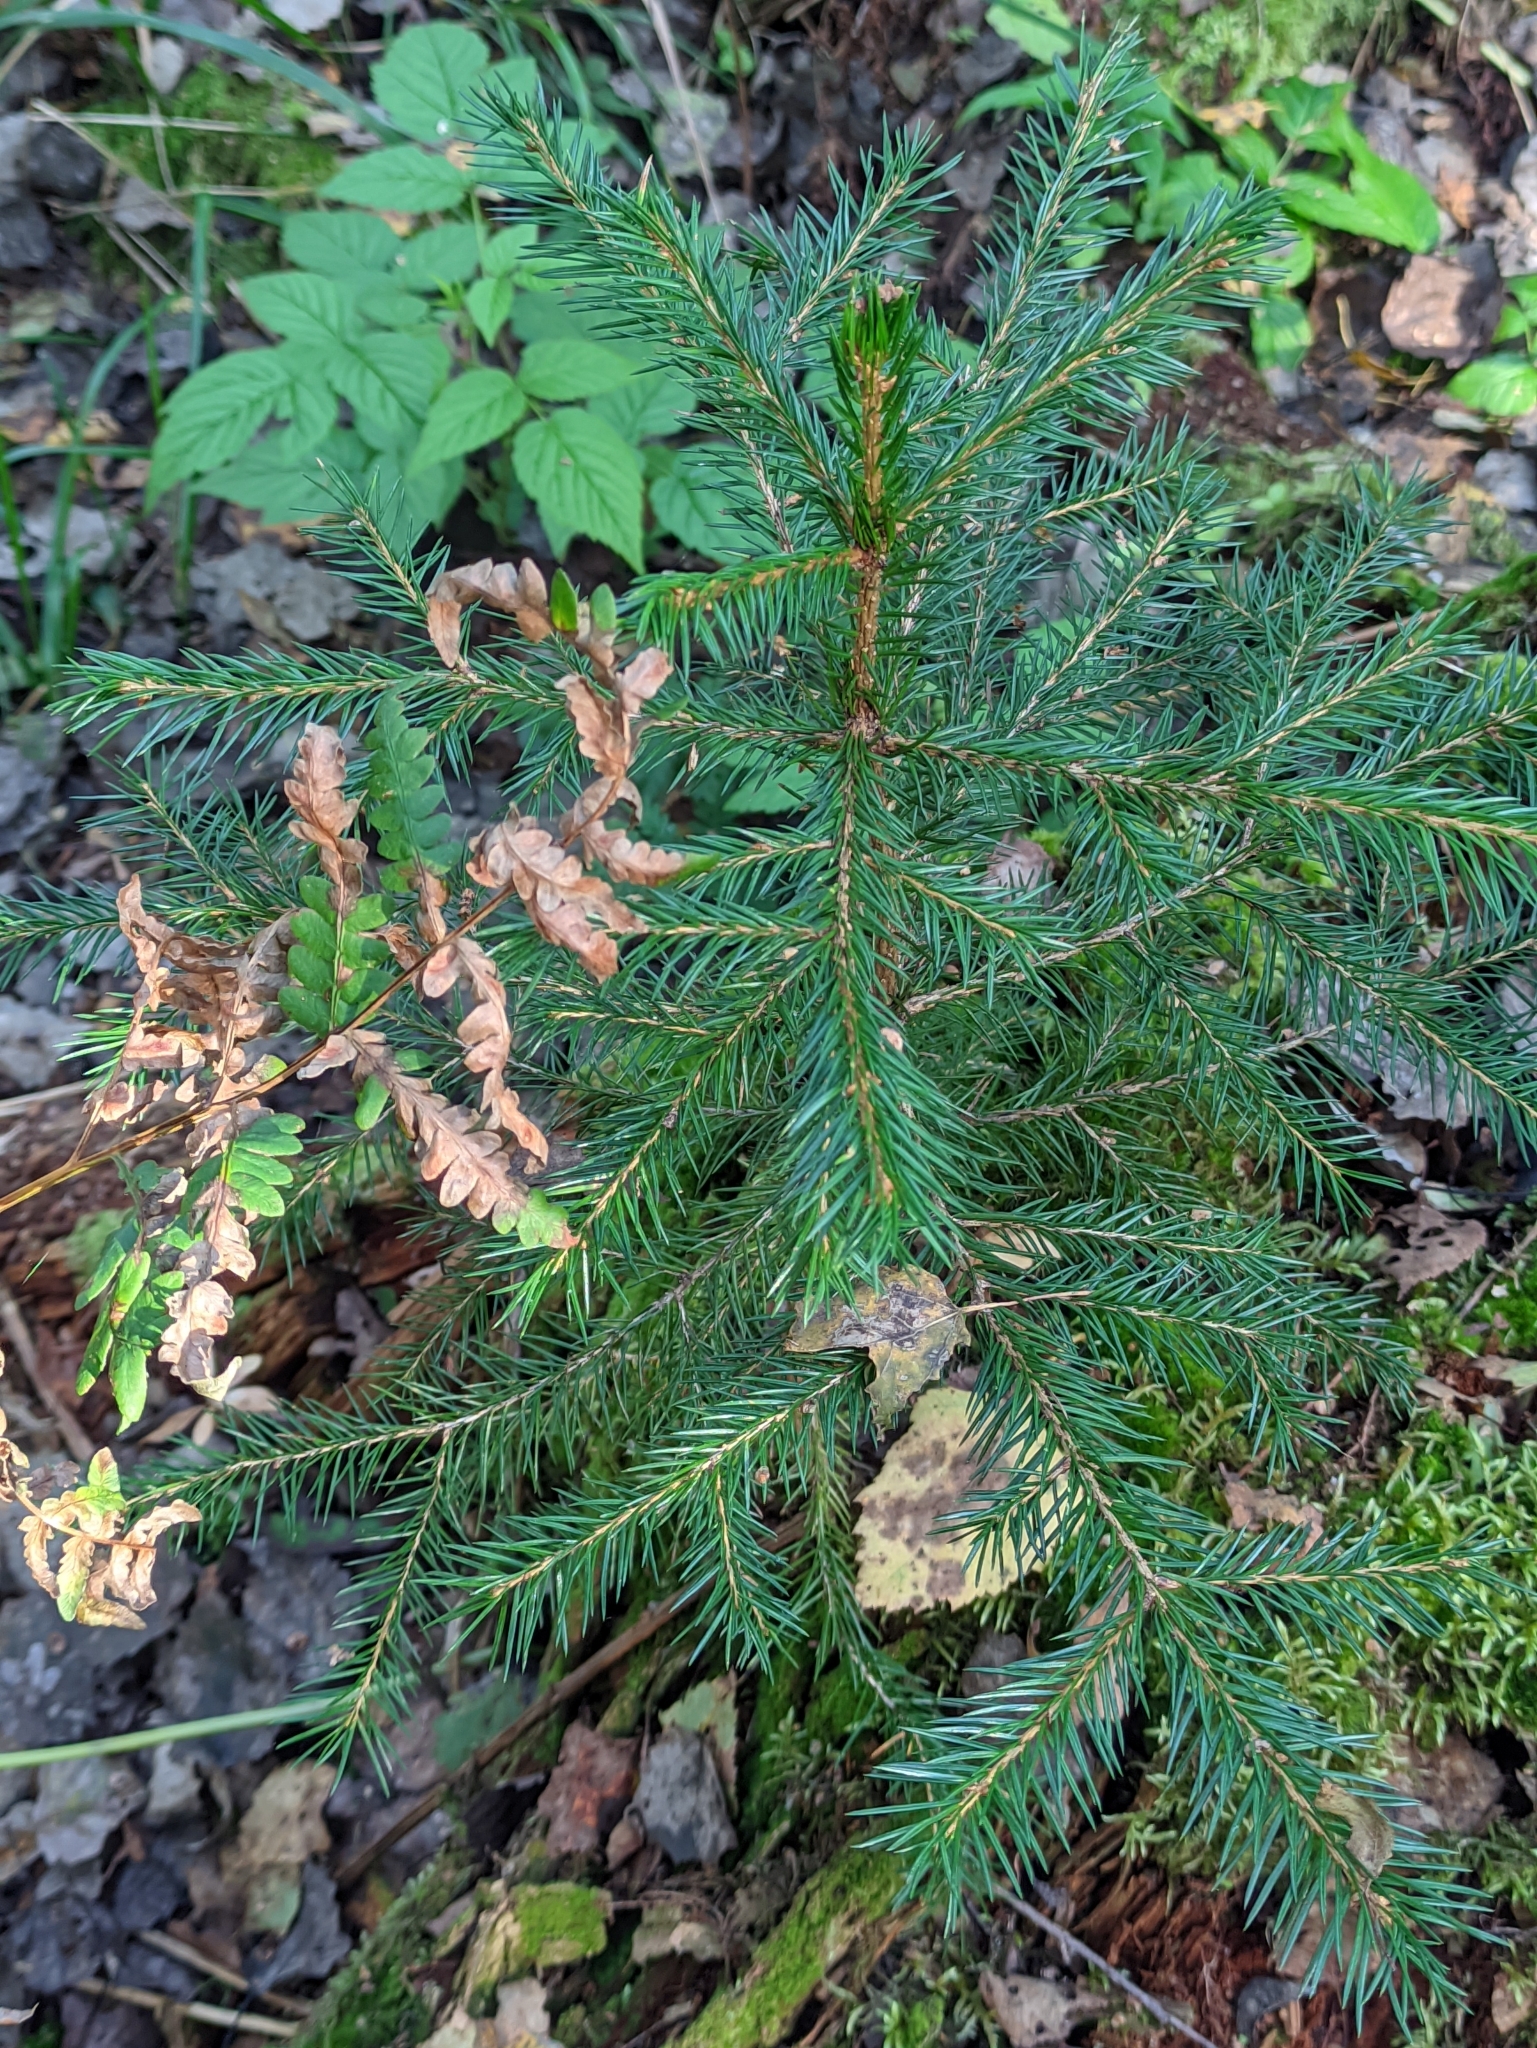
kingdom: Plantae
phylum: Tracheophyta
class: Pinopsida
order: Pinales
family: Pinaceae
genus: Picea
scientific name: Picea abies
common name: Norway spruce
